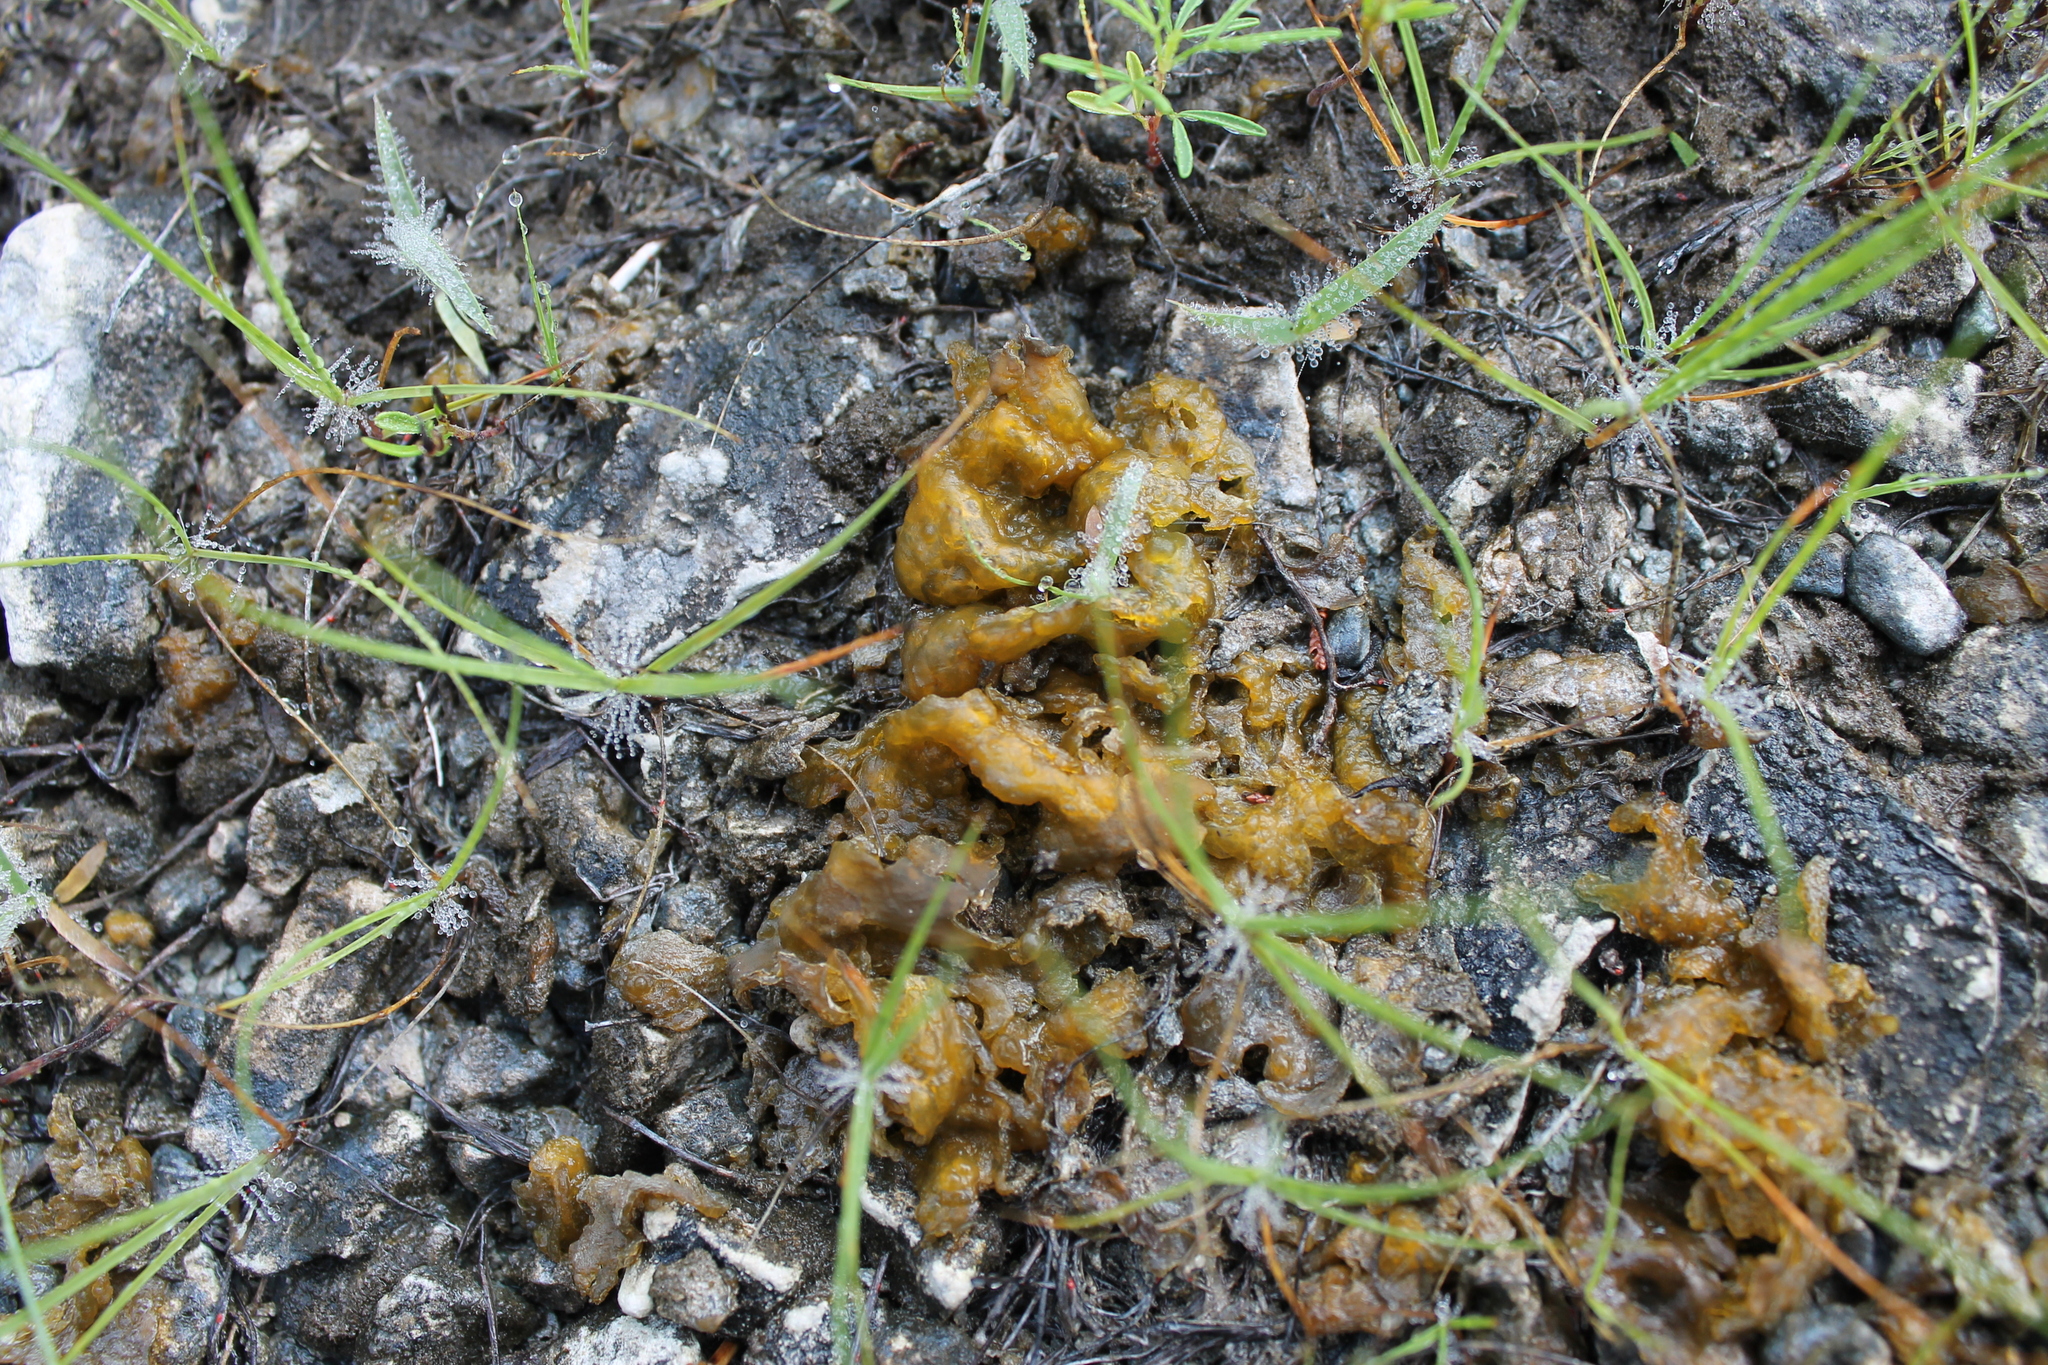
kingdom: Bacteria
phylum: Cyanobacteria
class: Cyanobacteriia
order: Cyanobacteriales
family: Nostocaceae
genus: Nostoc
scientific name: Nostoc commune
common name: Star jelly
